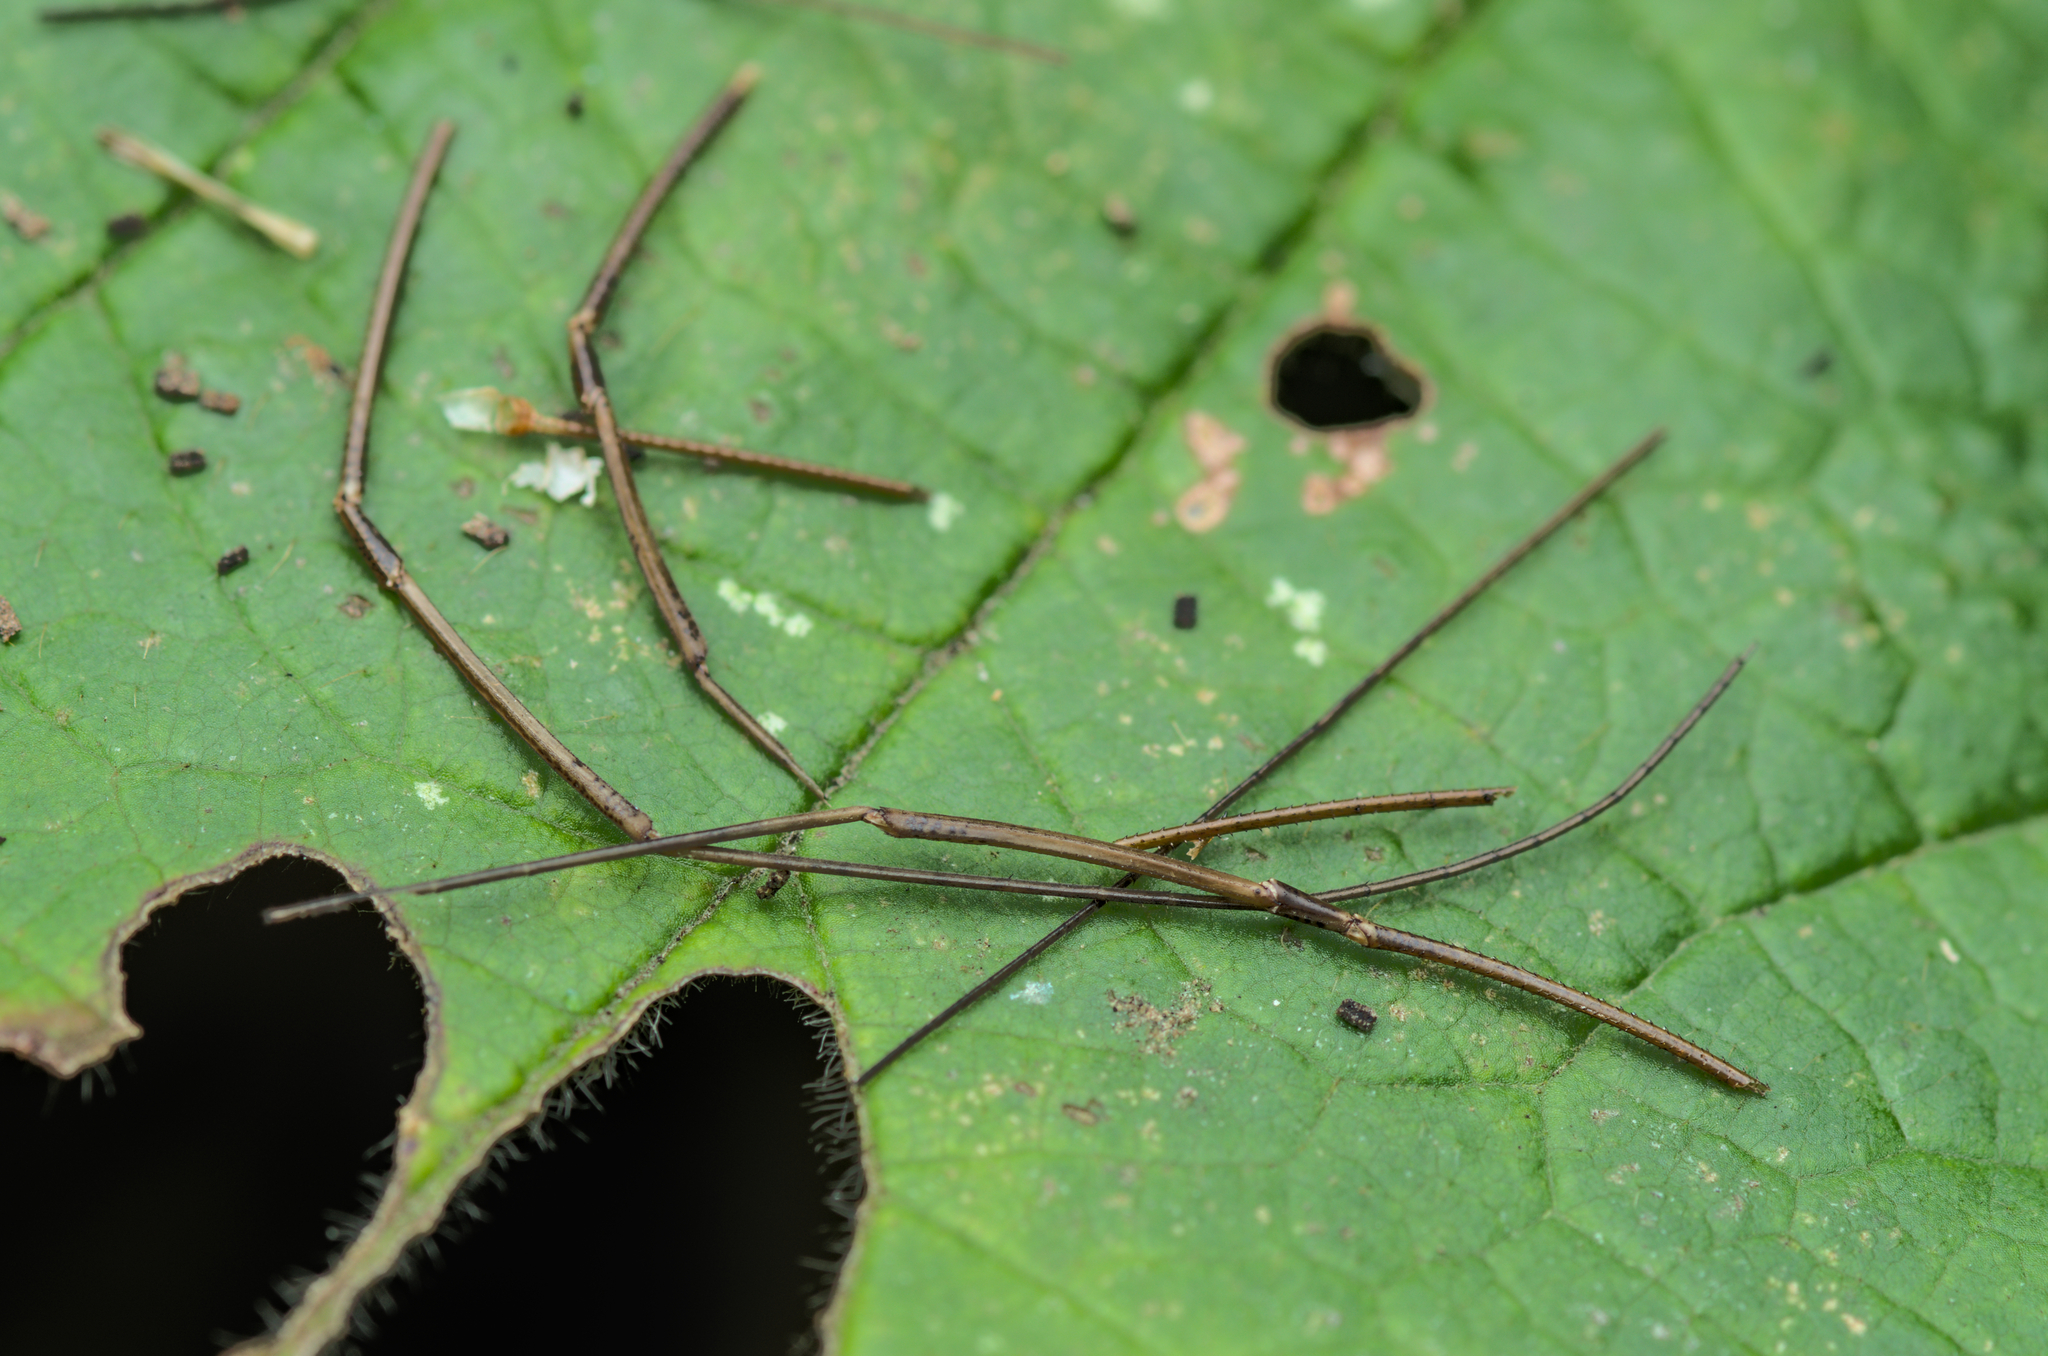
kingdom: Animalia
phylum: Arthropoda
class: Arachnida
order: Opiliones
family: Phalangiidae
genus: Phalangium
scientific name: Phalangium opilio
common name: Daddy longleg
